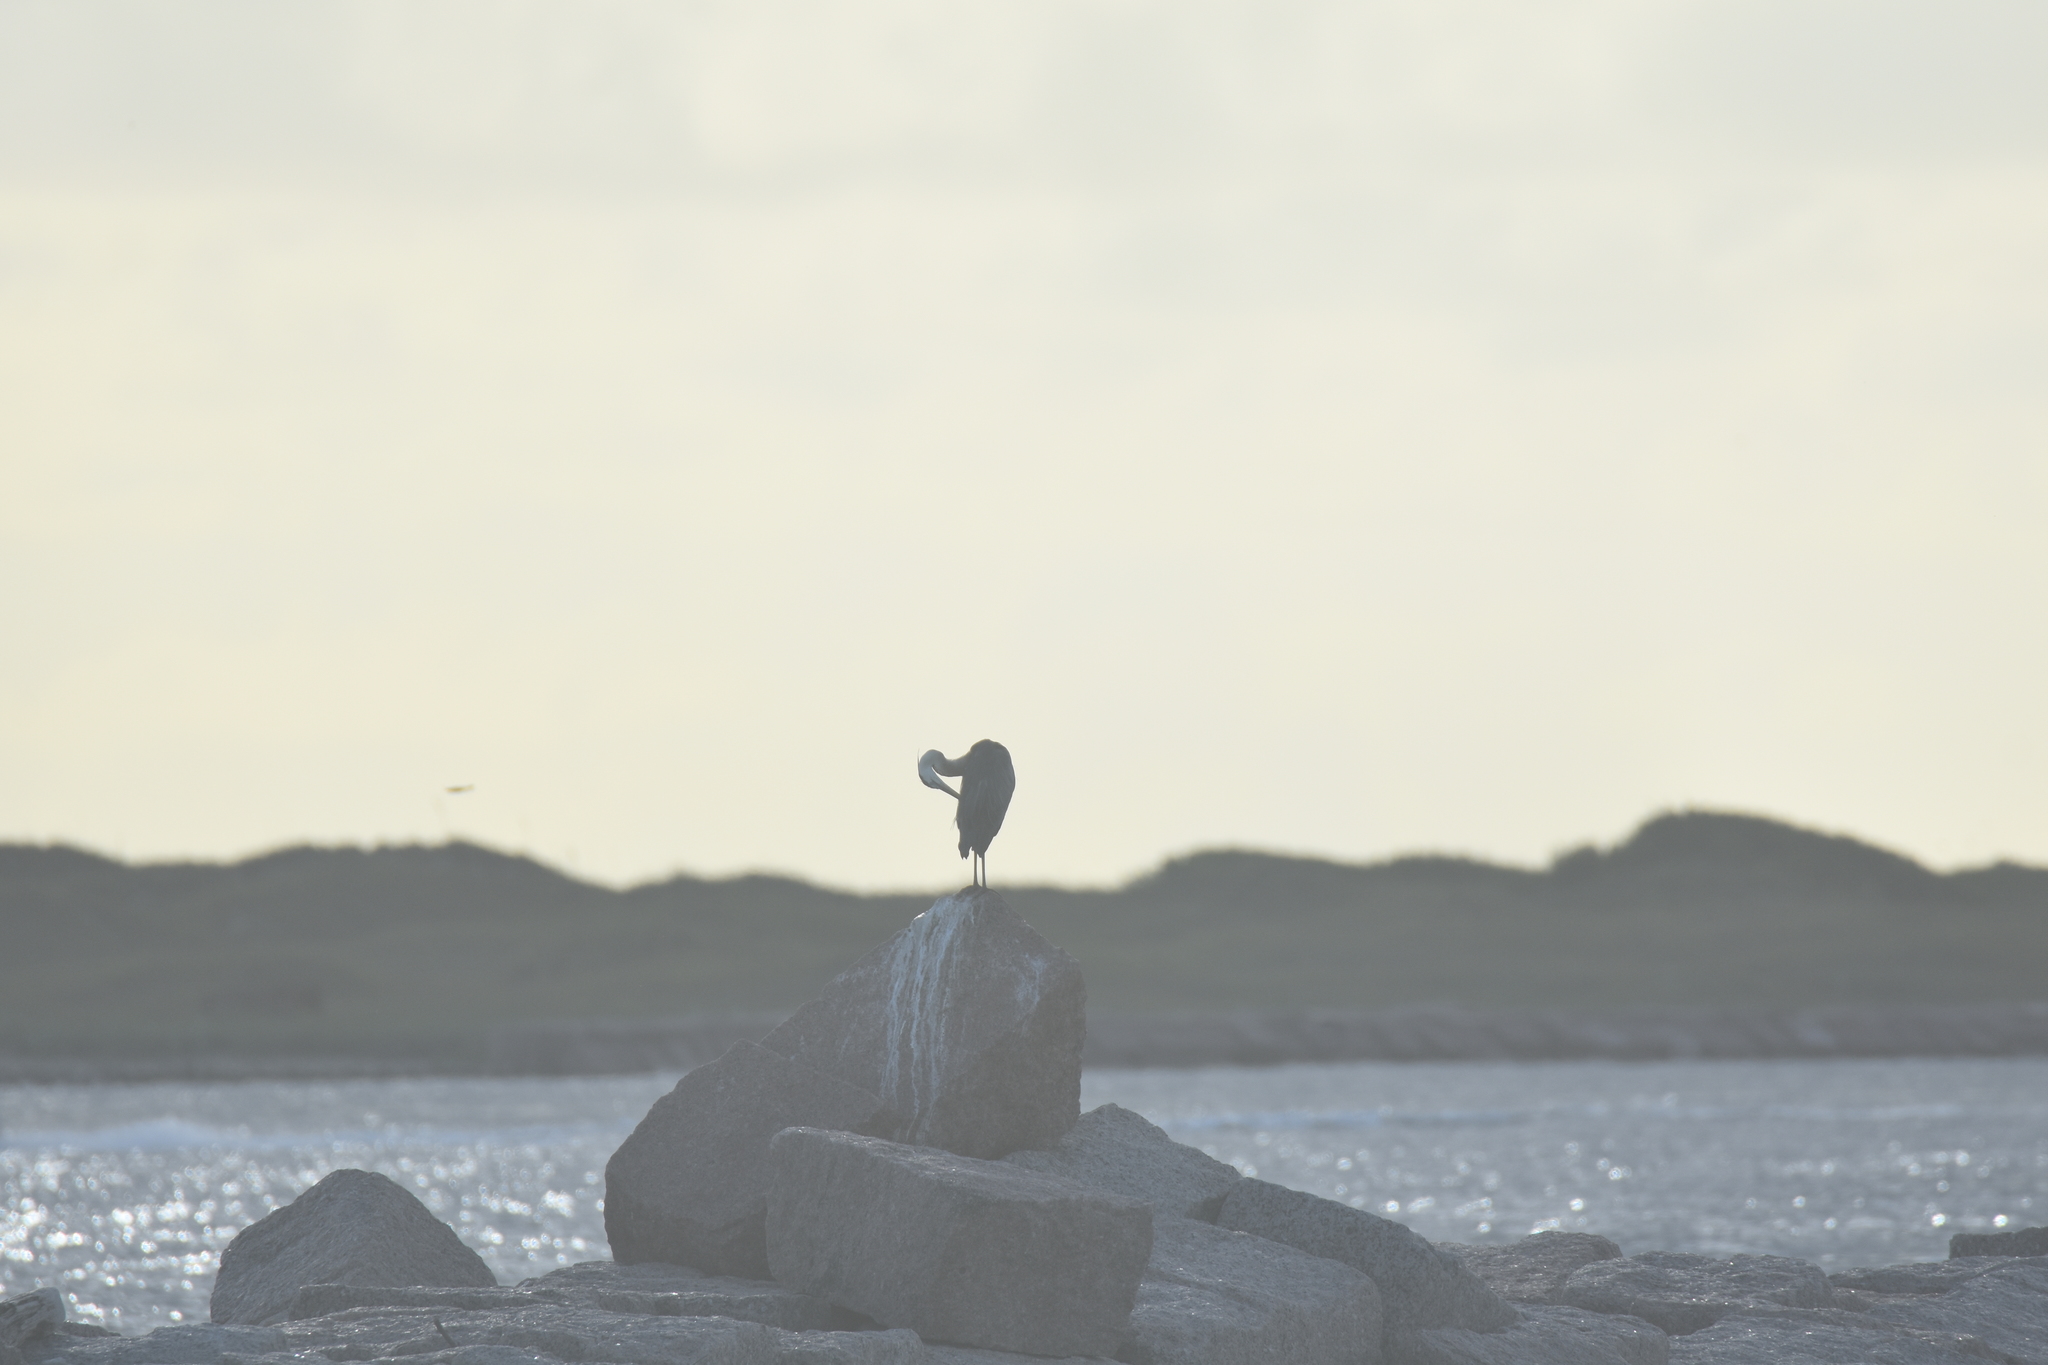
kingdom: Animalia
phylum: Chordata
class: Aves
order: Pelecaniformes
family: Ardeidae
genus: Ardea
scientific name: Ardea herodias
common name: Great blue heron
